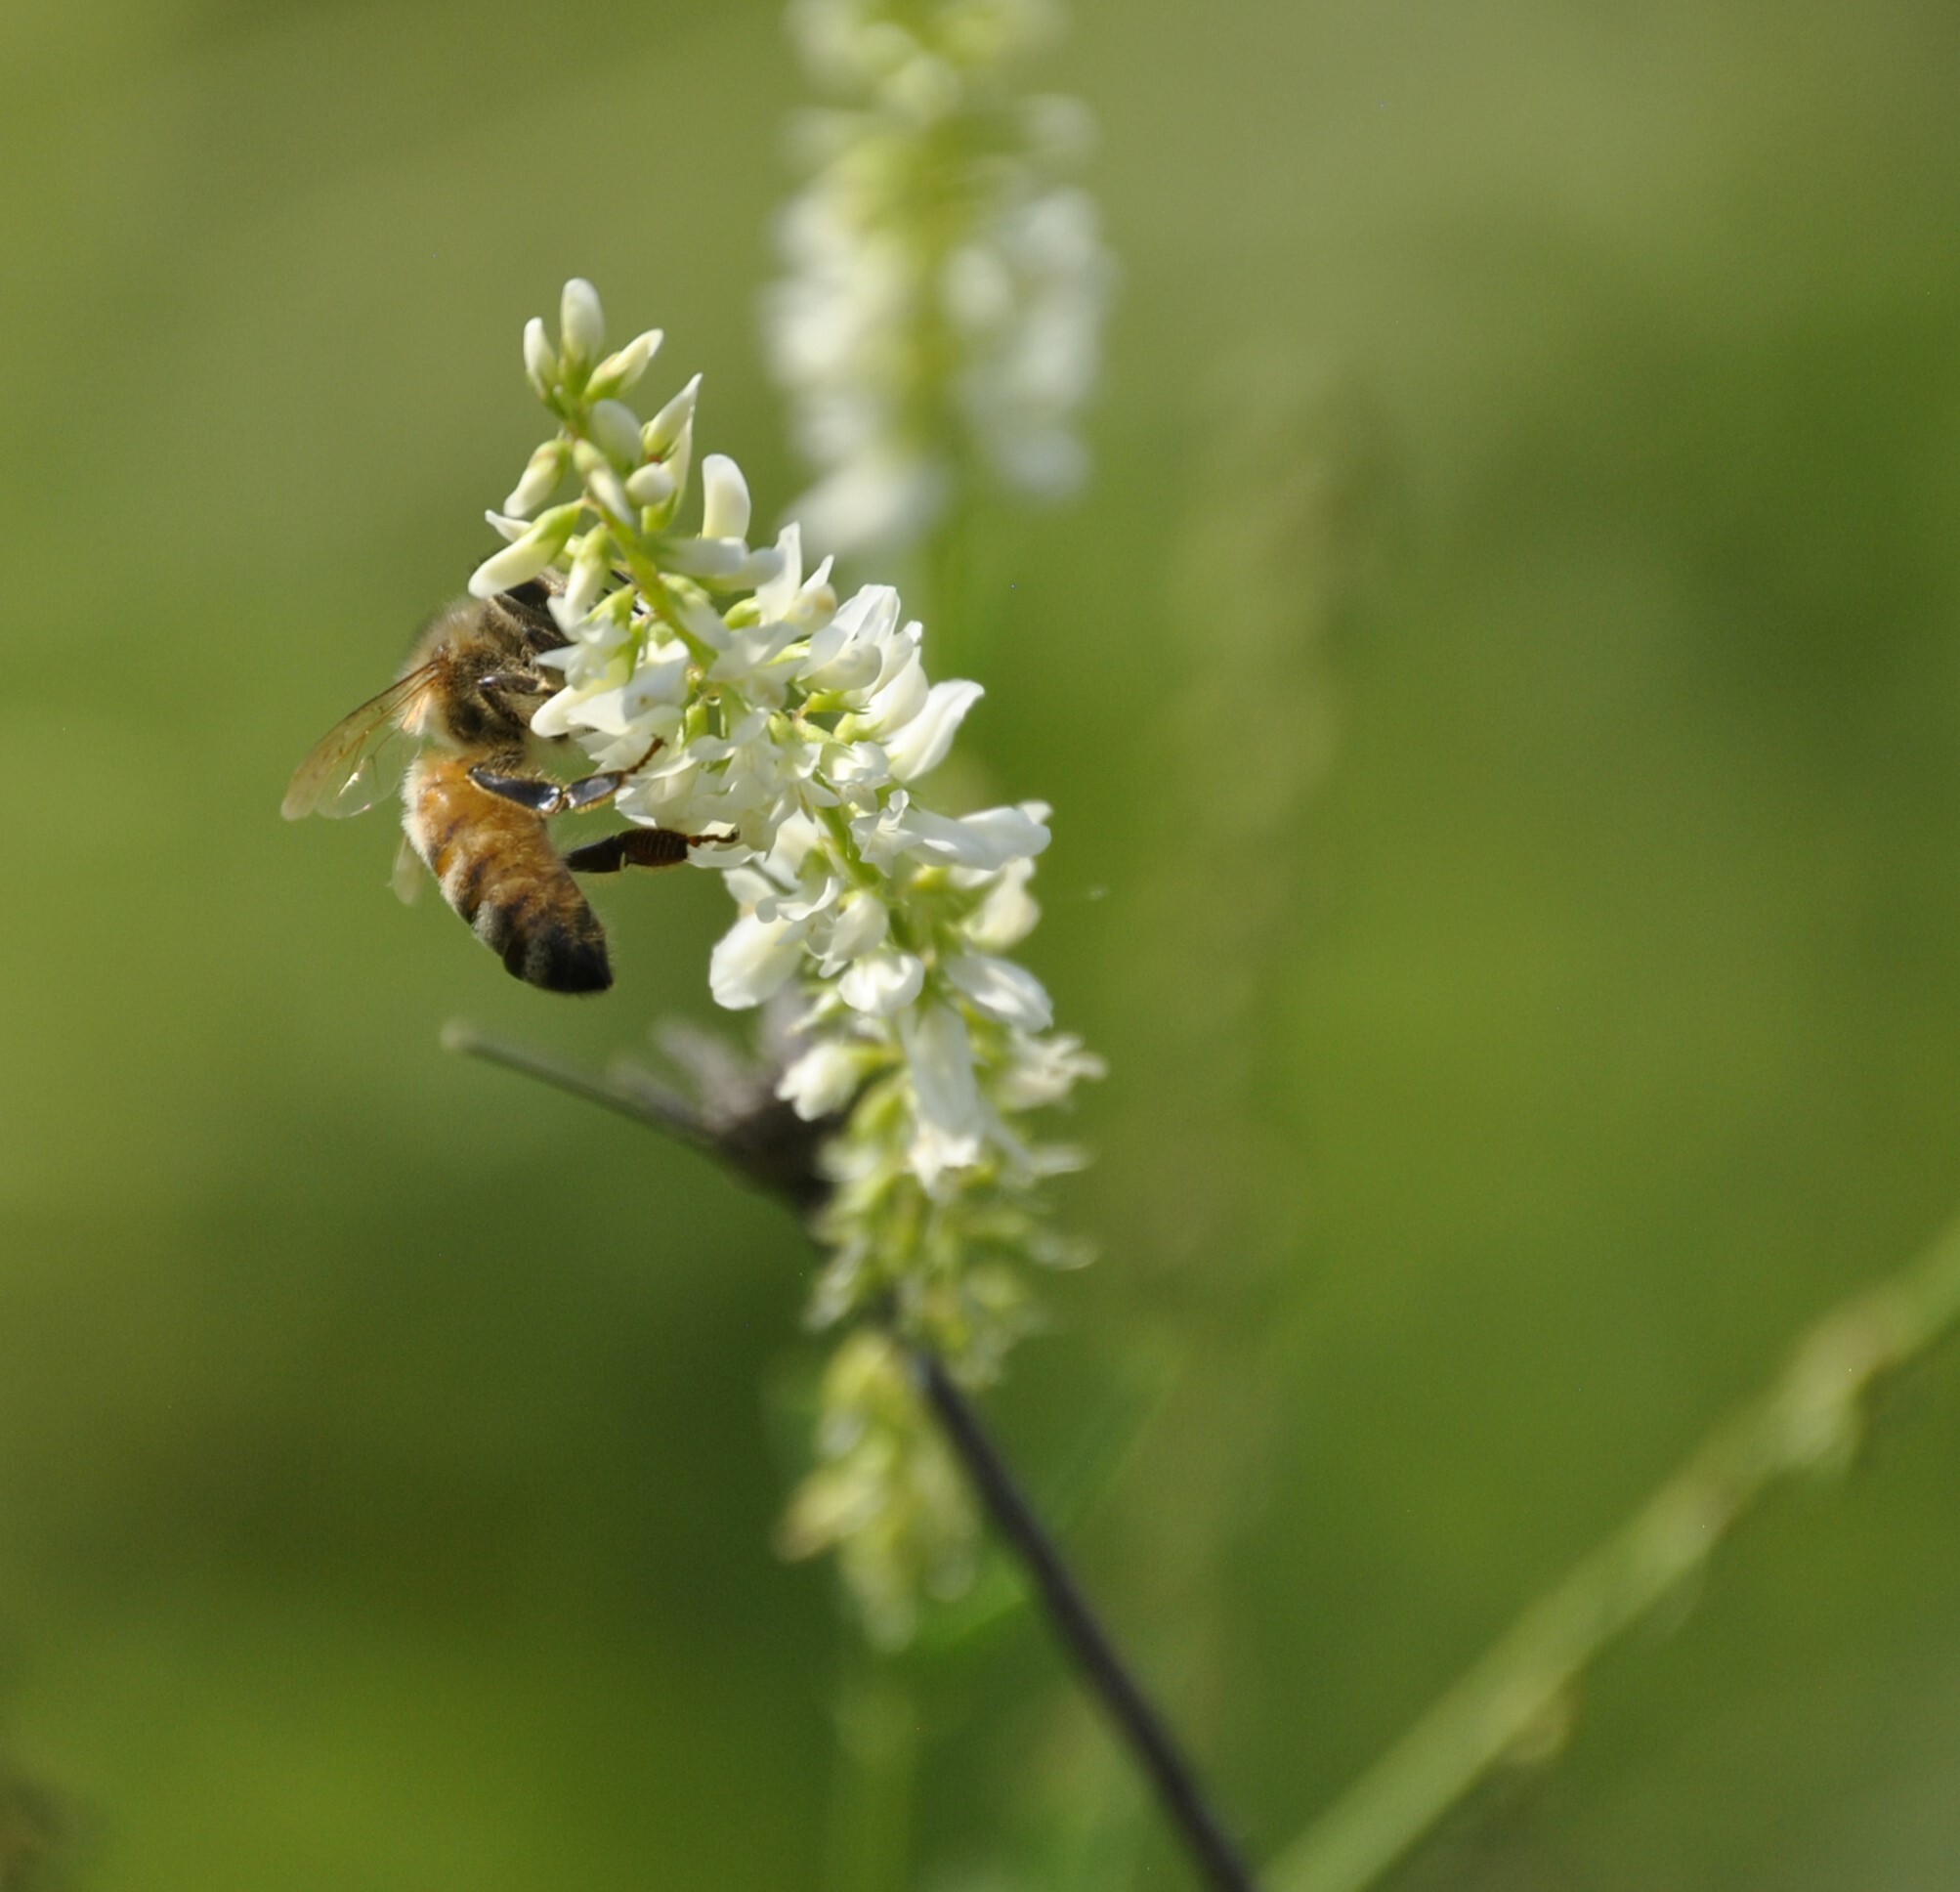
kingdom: Animalia
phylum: Arthropoda
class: Insecta
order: Hymenoptera
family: Apidae
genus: Apis
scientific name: Apis mellifera
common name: Honey bee
